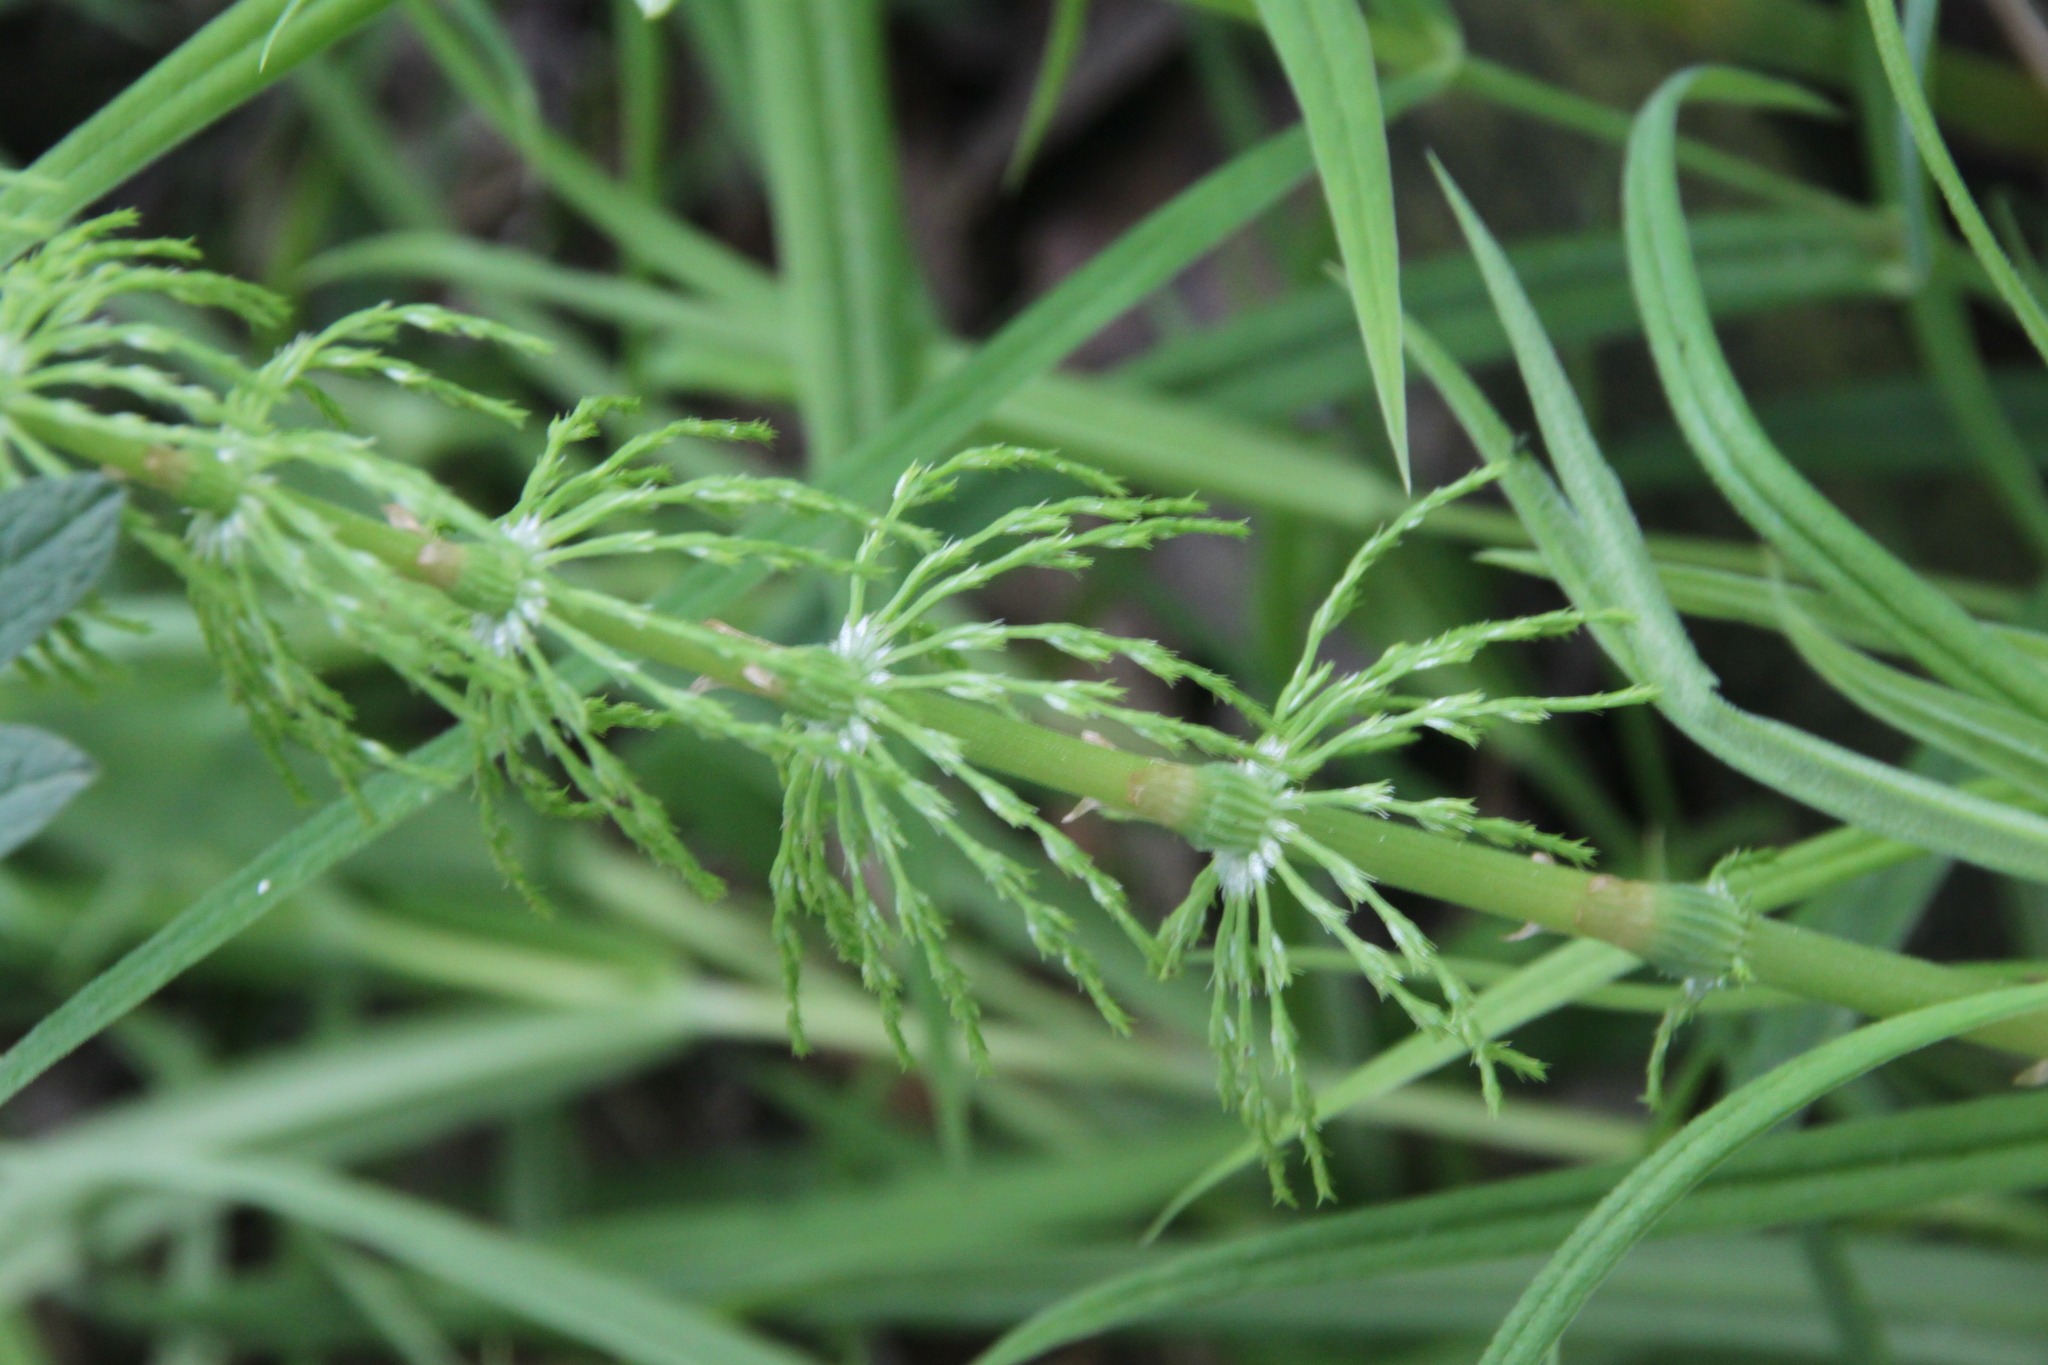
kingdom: Plantae
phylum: Tracheophyta
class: Polypodiopsida
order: Equisetales
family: Equisetaceae
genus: Equisetum
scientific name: Equisetum sylvaticum
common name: Wood horsetail
